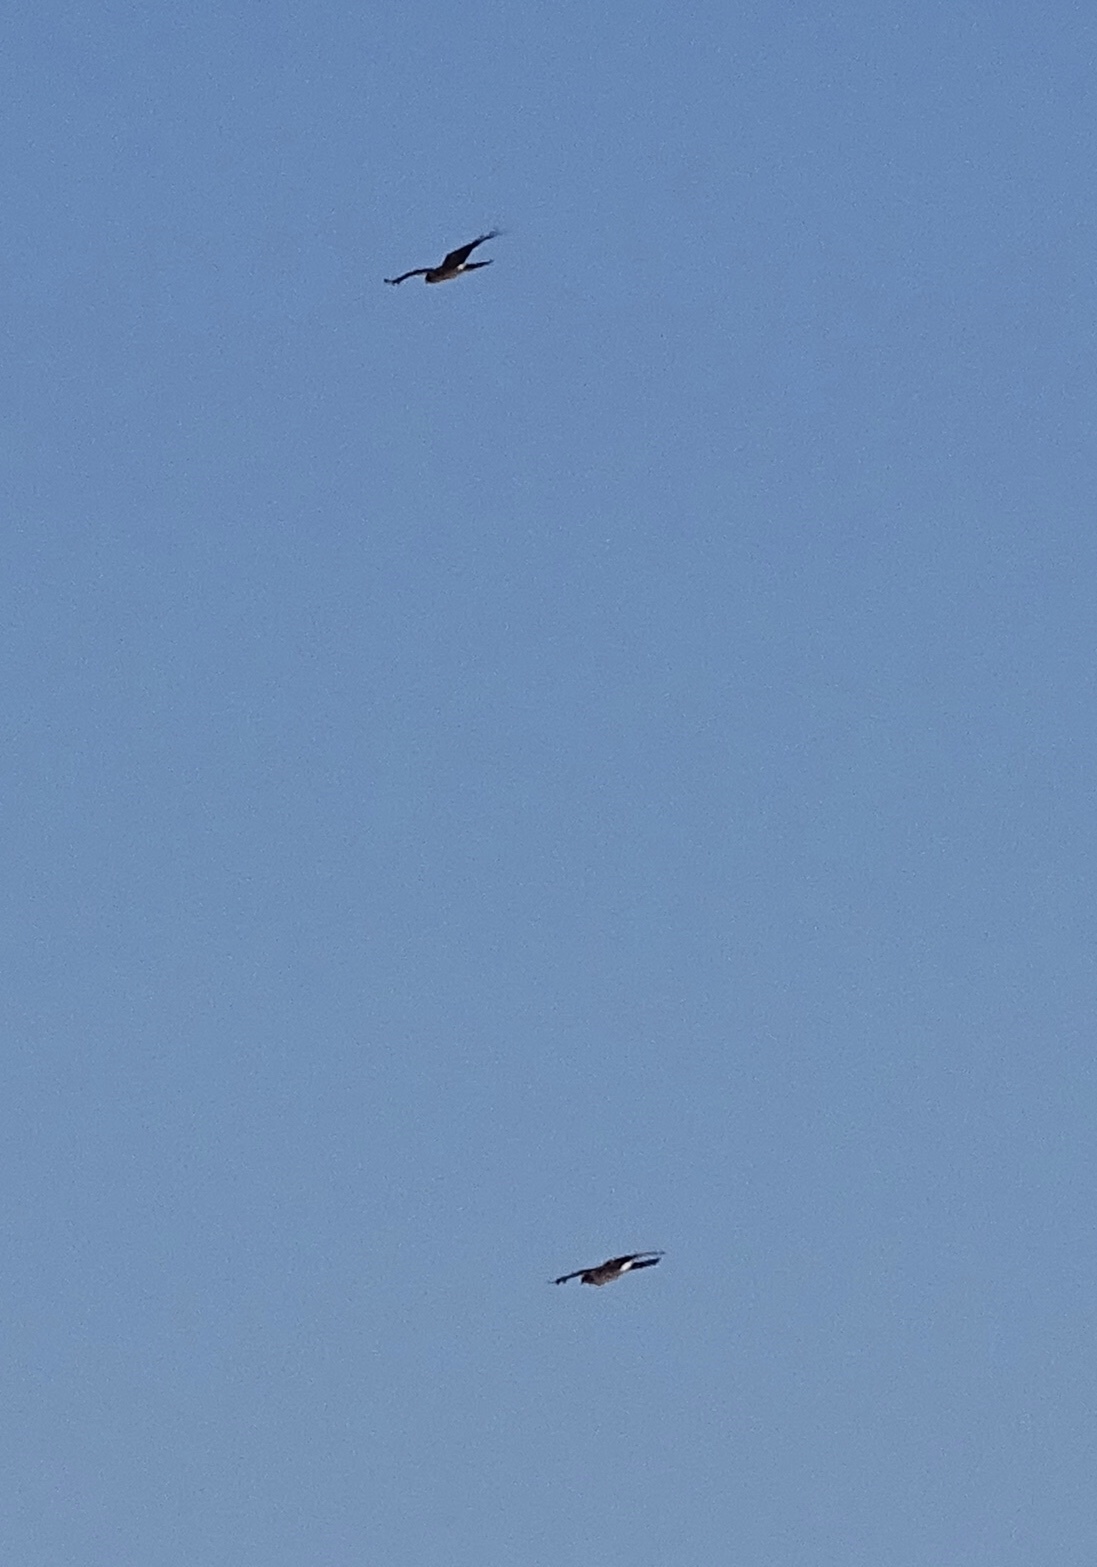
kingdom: Animalia
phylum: Chordata
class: Aves
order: Accipitriformes
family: Accipitridae
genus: Circus
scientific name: Circus cyaneus
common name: Hen harrier
